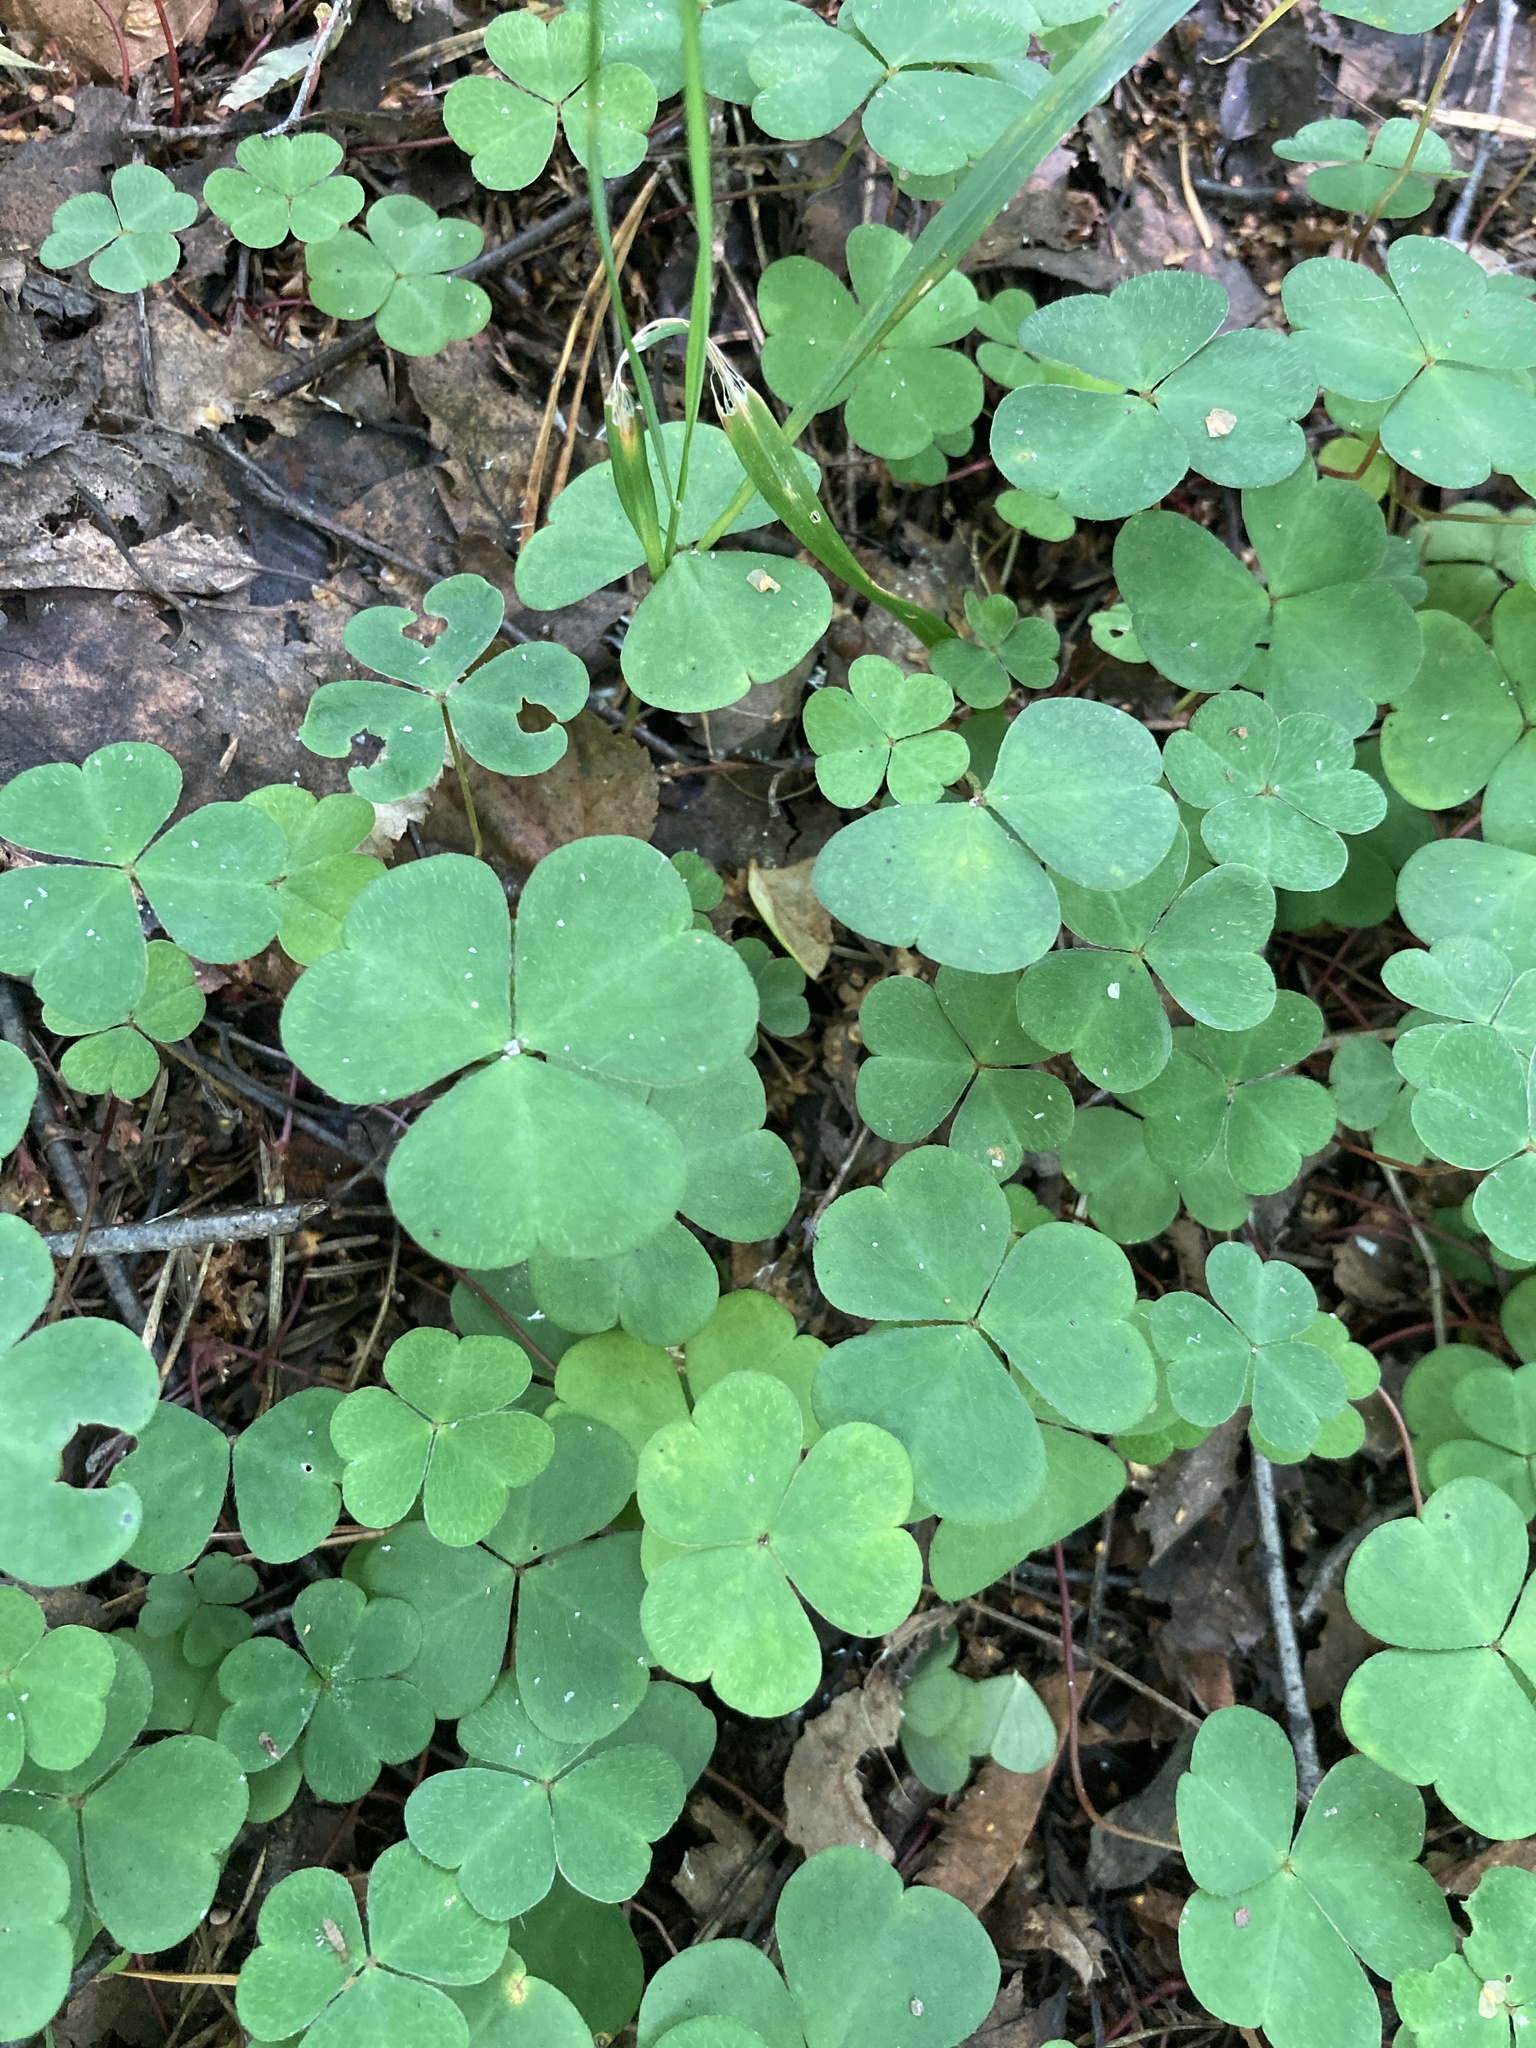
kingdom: Plantae
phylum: Tracheophyta
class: Magnoliopsida
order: Oxalidales
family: Oxalidaceae
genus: Oxalis
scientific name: Oxalis acetosella
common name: Wood-sorrel
